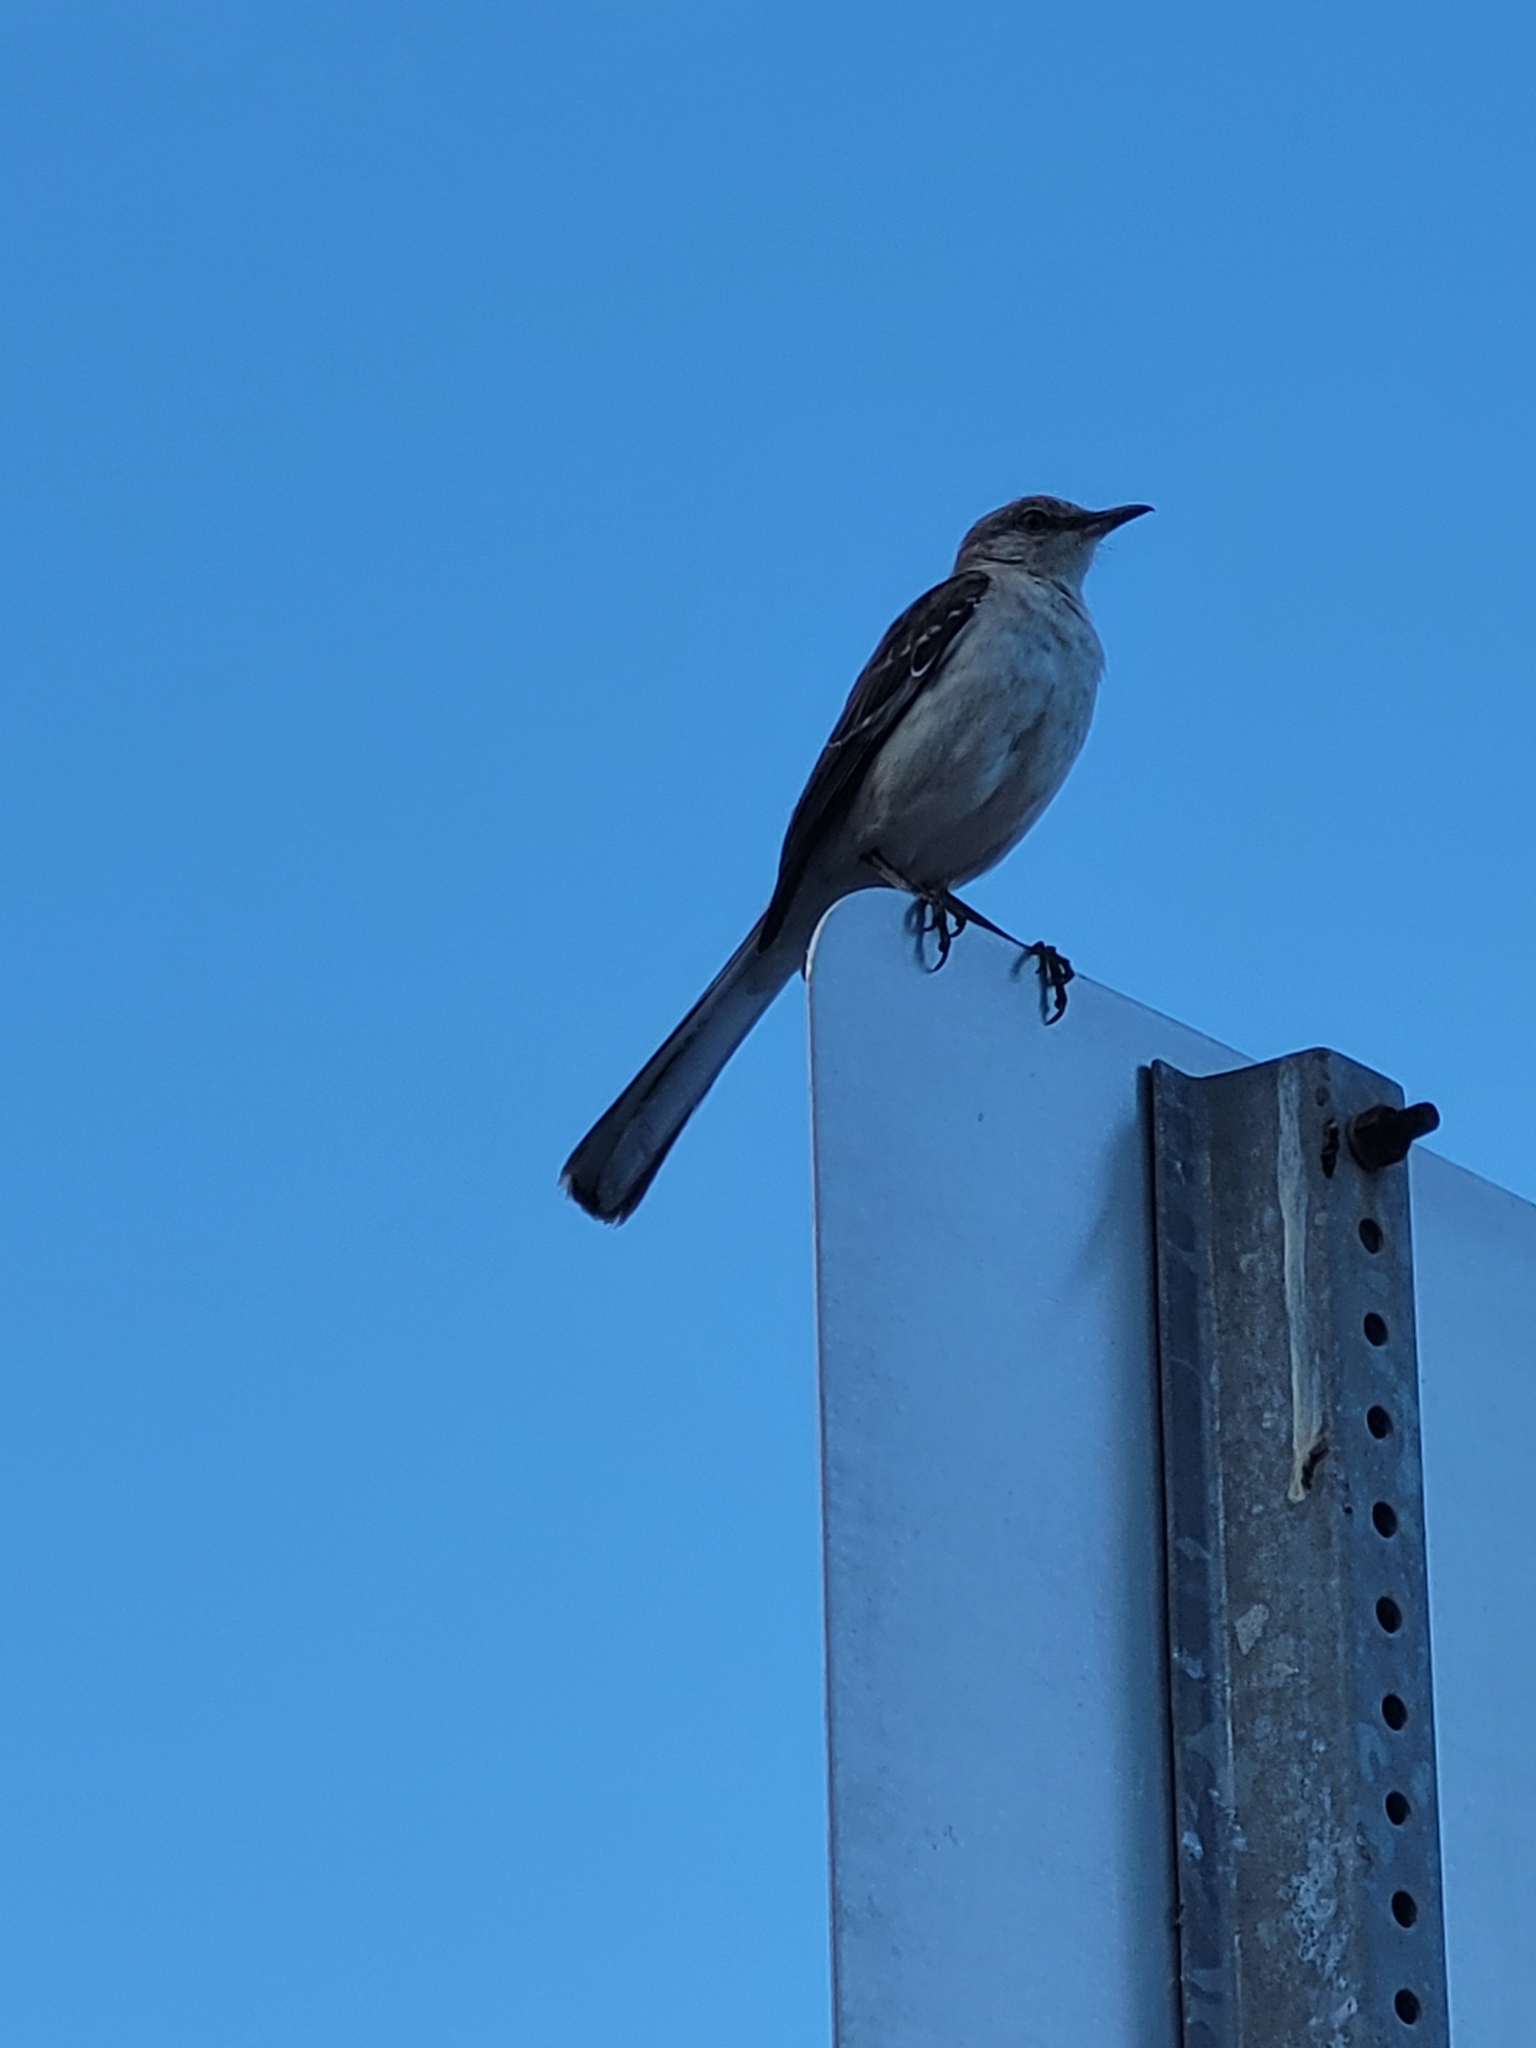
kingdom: Animalia
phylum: Chordata
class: Aves
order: Passeriformes
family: Mimidae
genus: Mimus
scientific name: Mimus polyglottos
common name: Northern mockingbird
